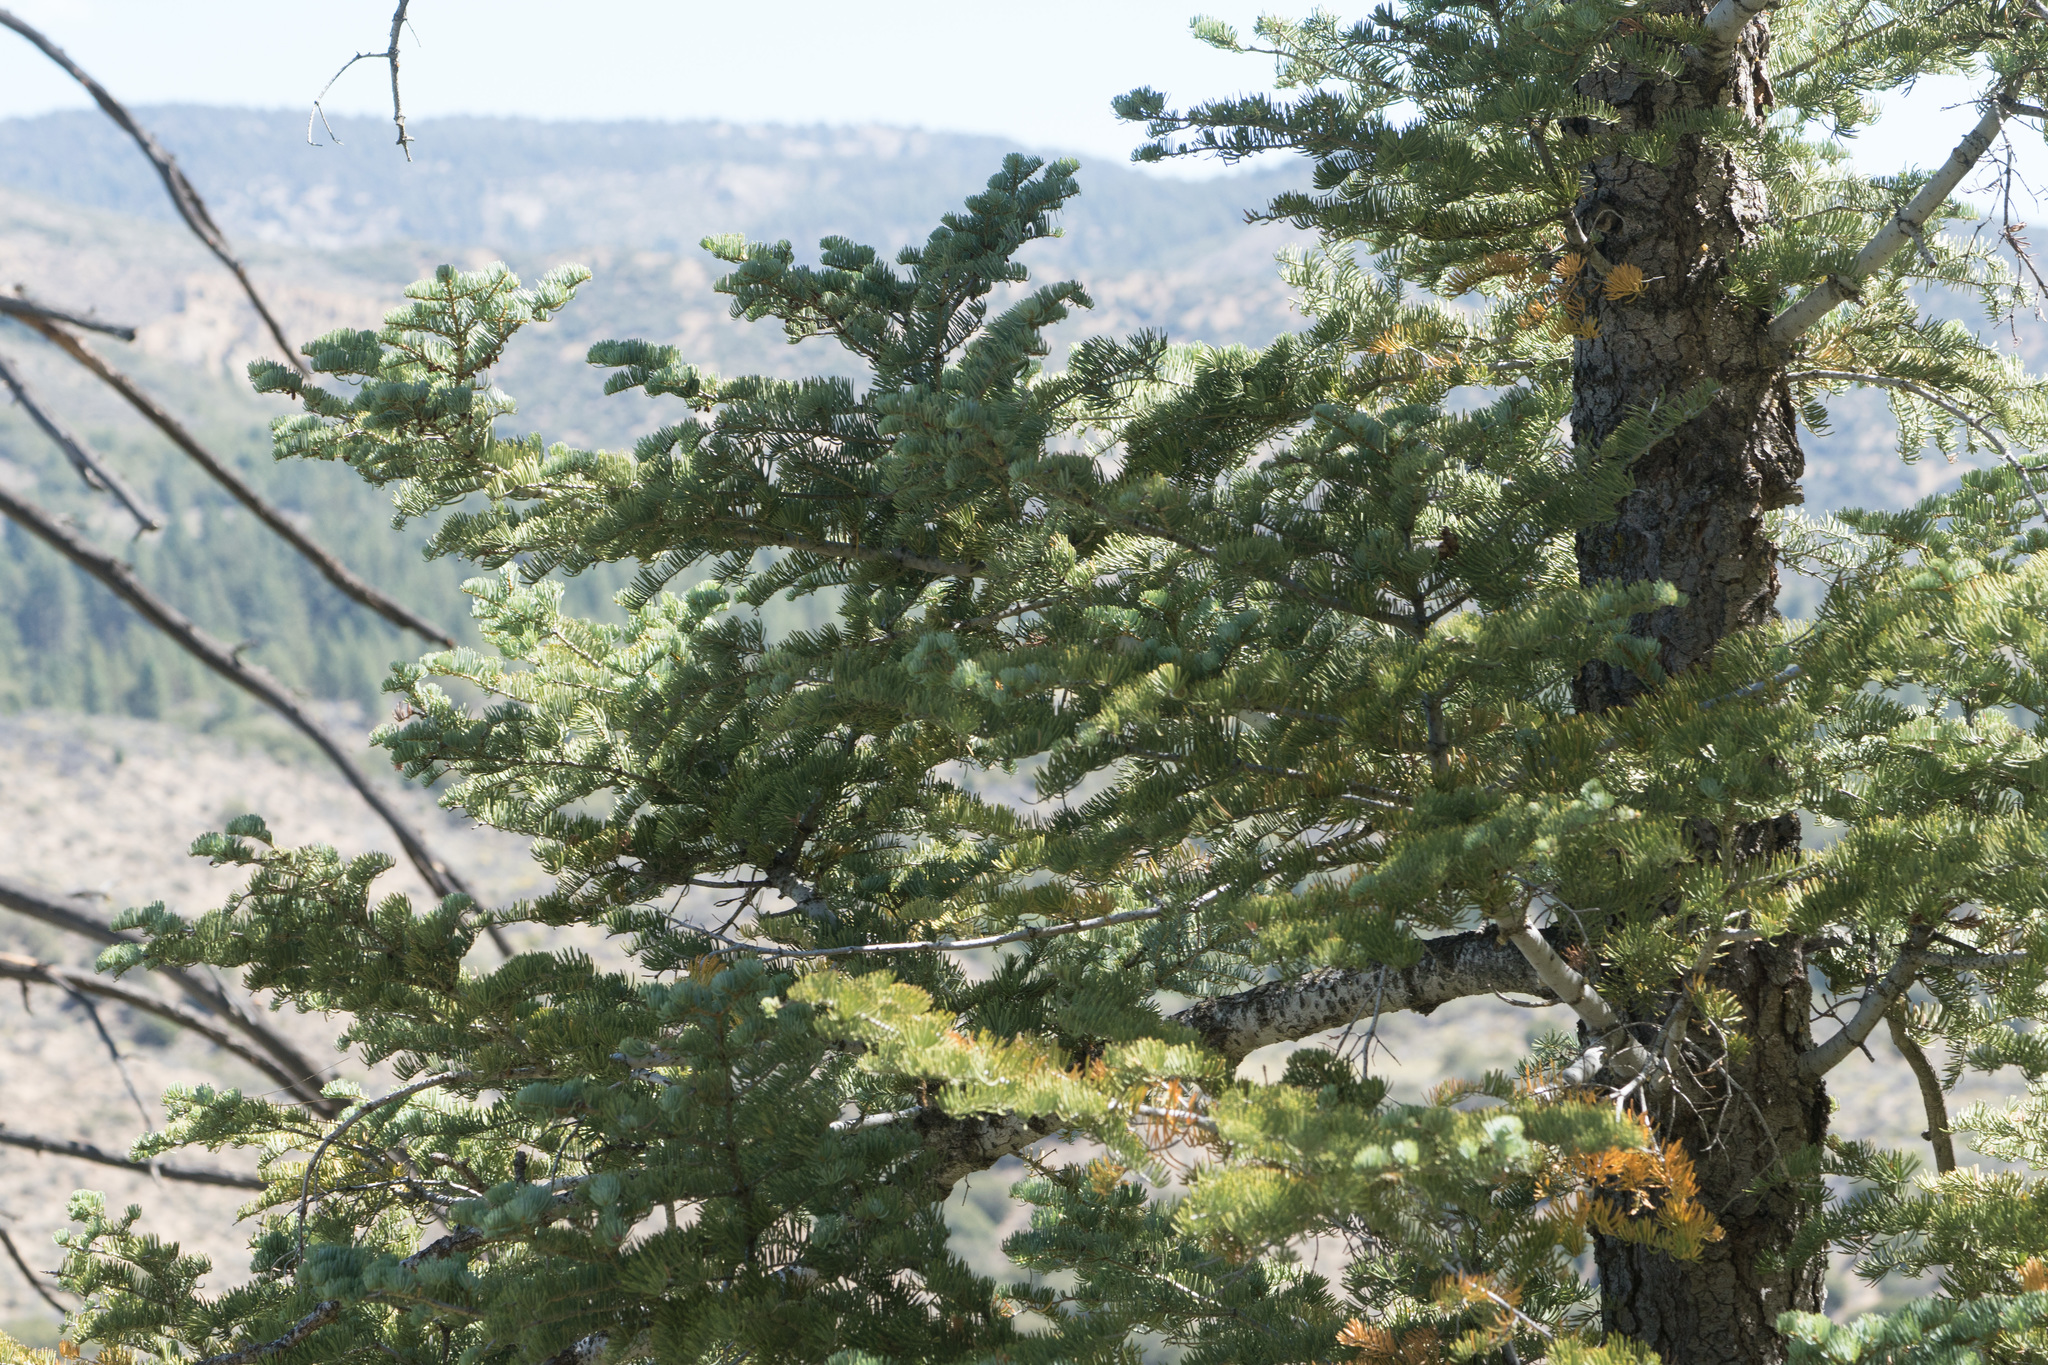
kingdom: Plantae
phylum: Tracheophyta
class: Pinopsida
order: Pinales
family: Pinaceae
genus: Abies
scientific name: Abies concolor
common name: Colorado fir
